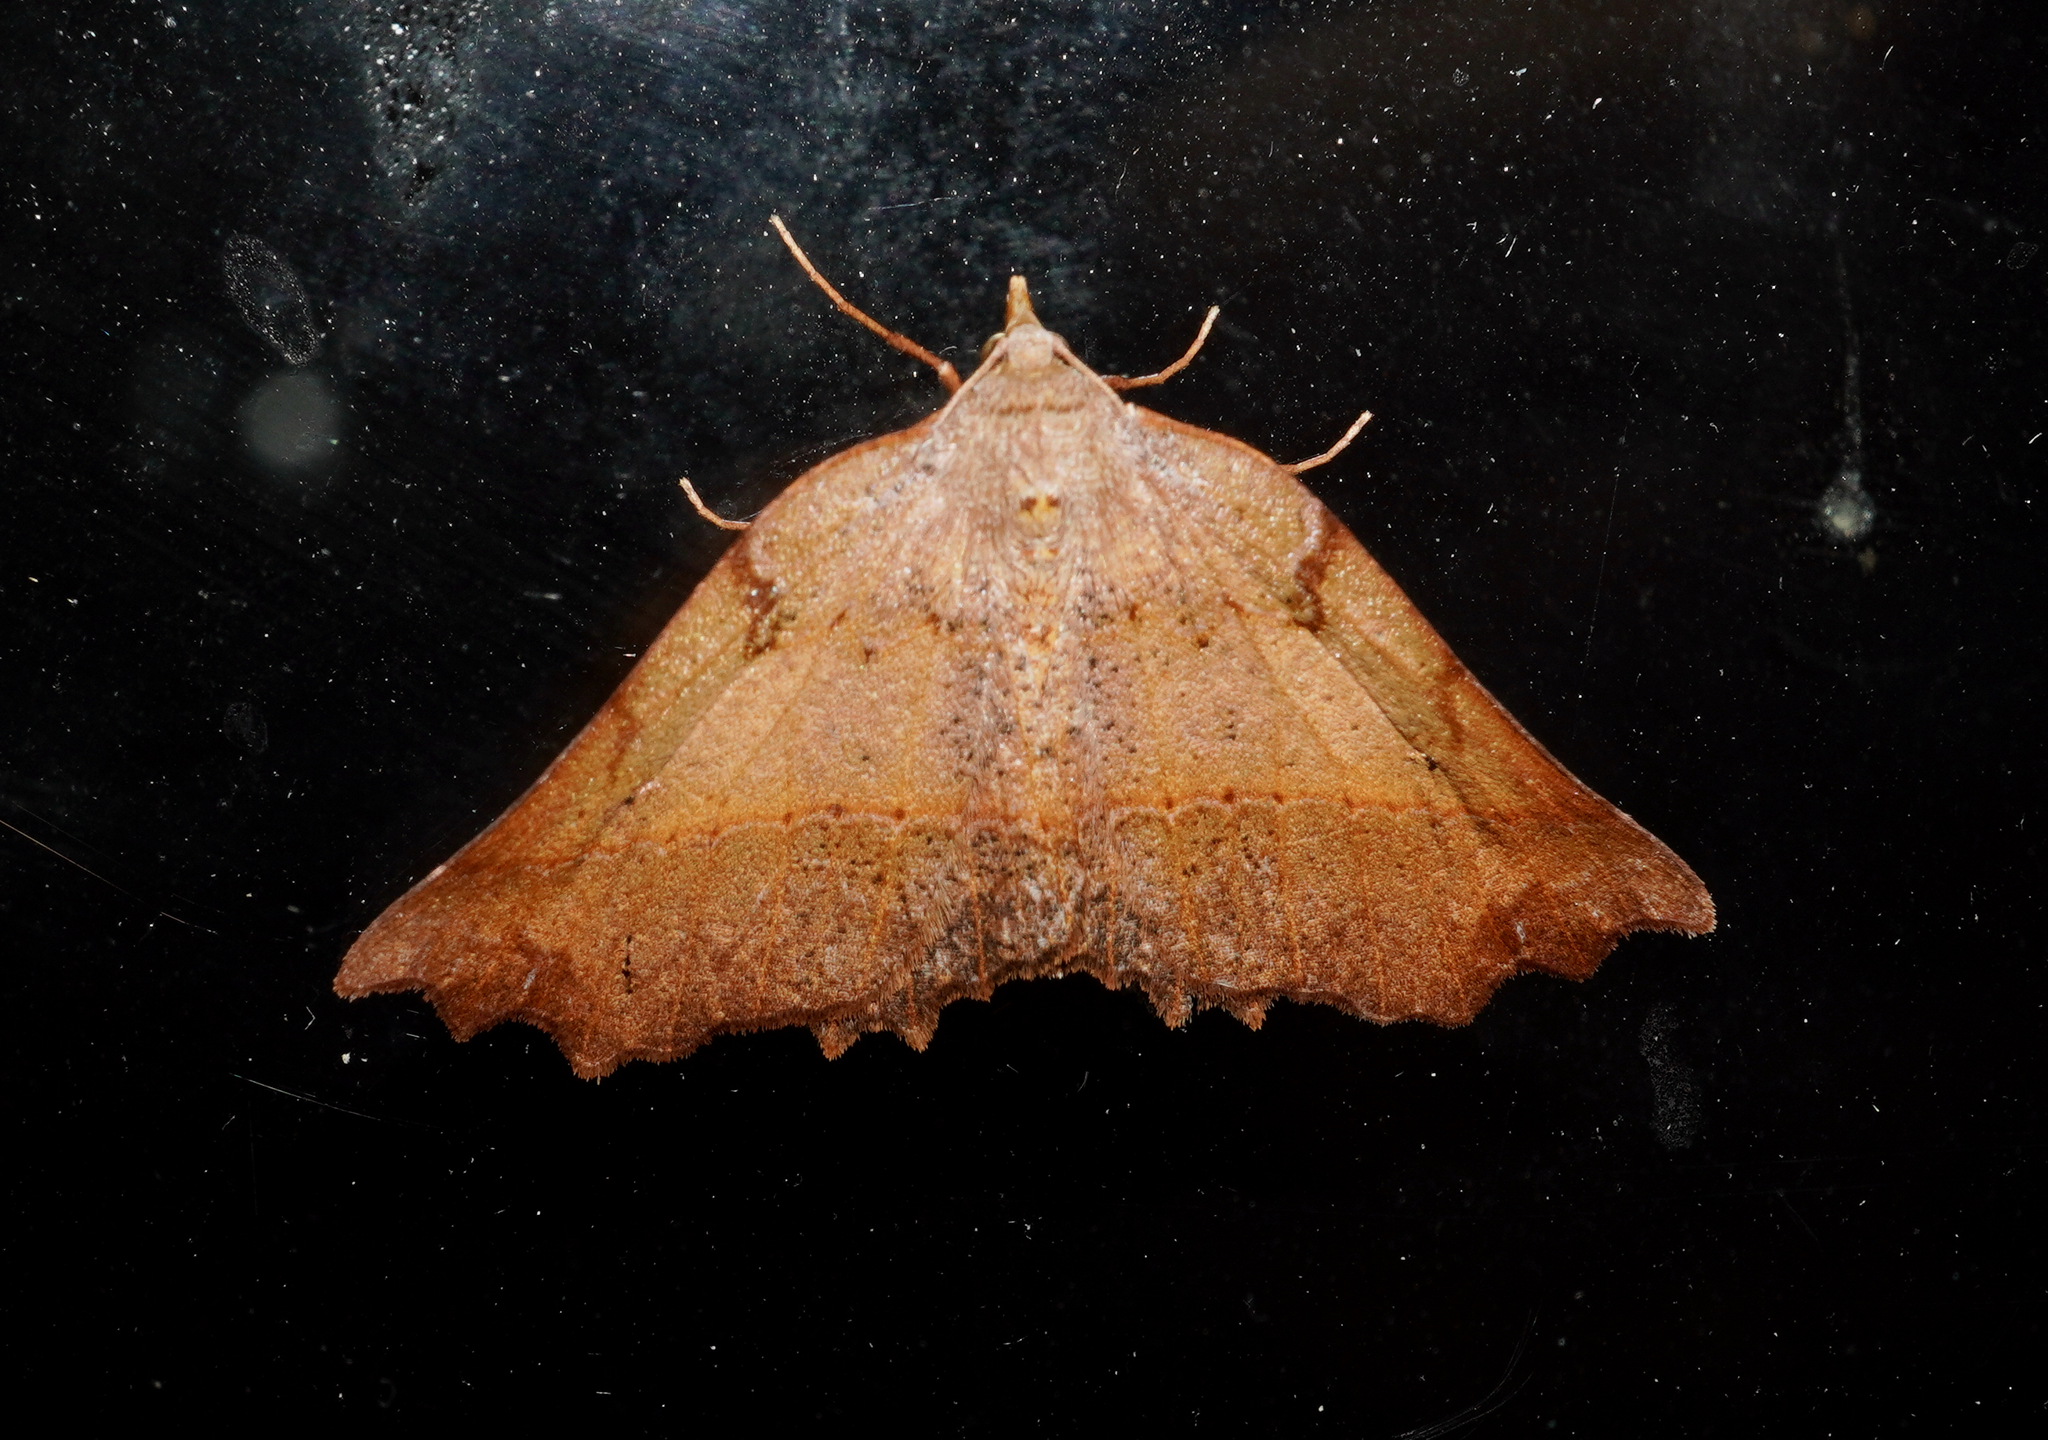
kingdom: Animalia
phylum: Arthropoda
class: Insecta
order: Lepidoptera
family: Geometridae
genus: Ischalis
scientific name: Ischalis gallaria
